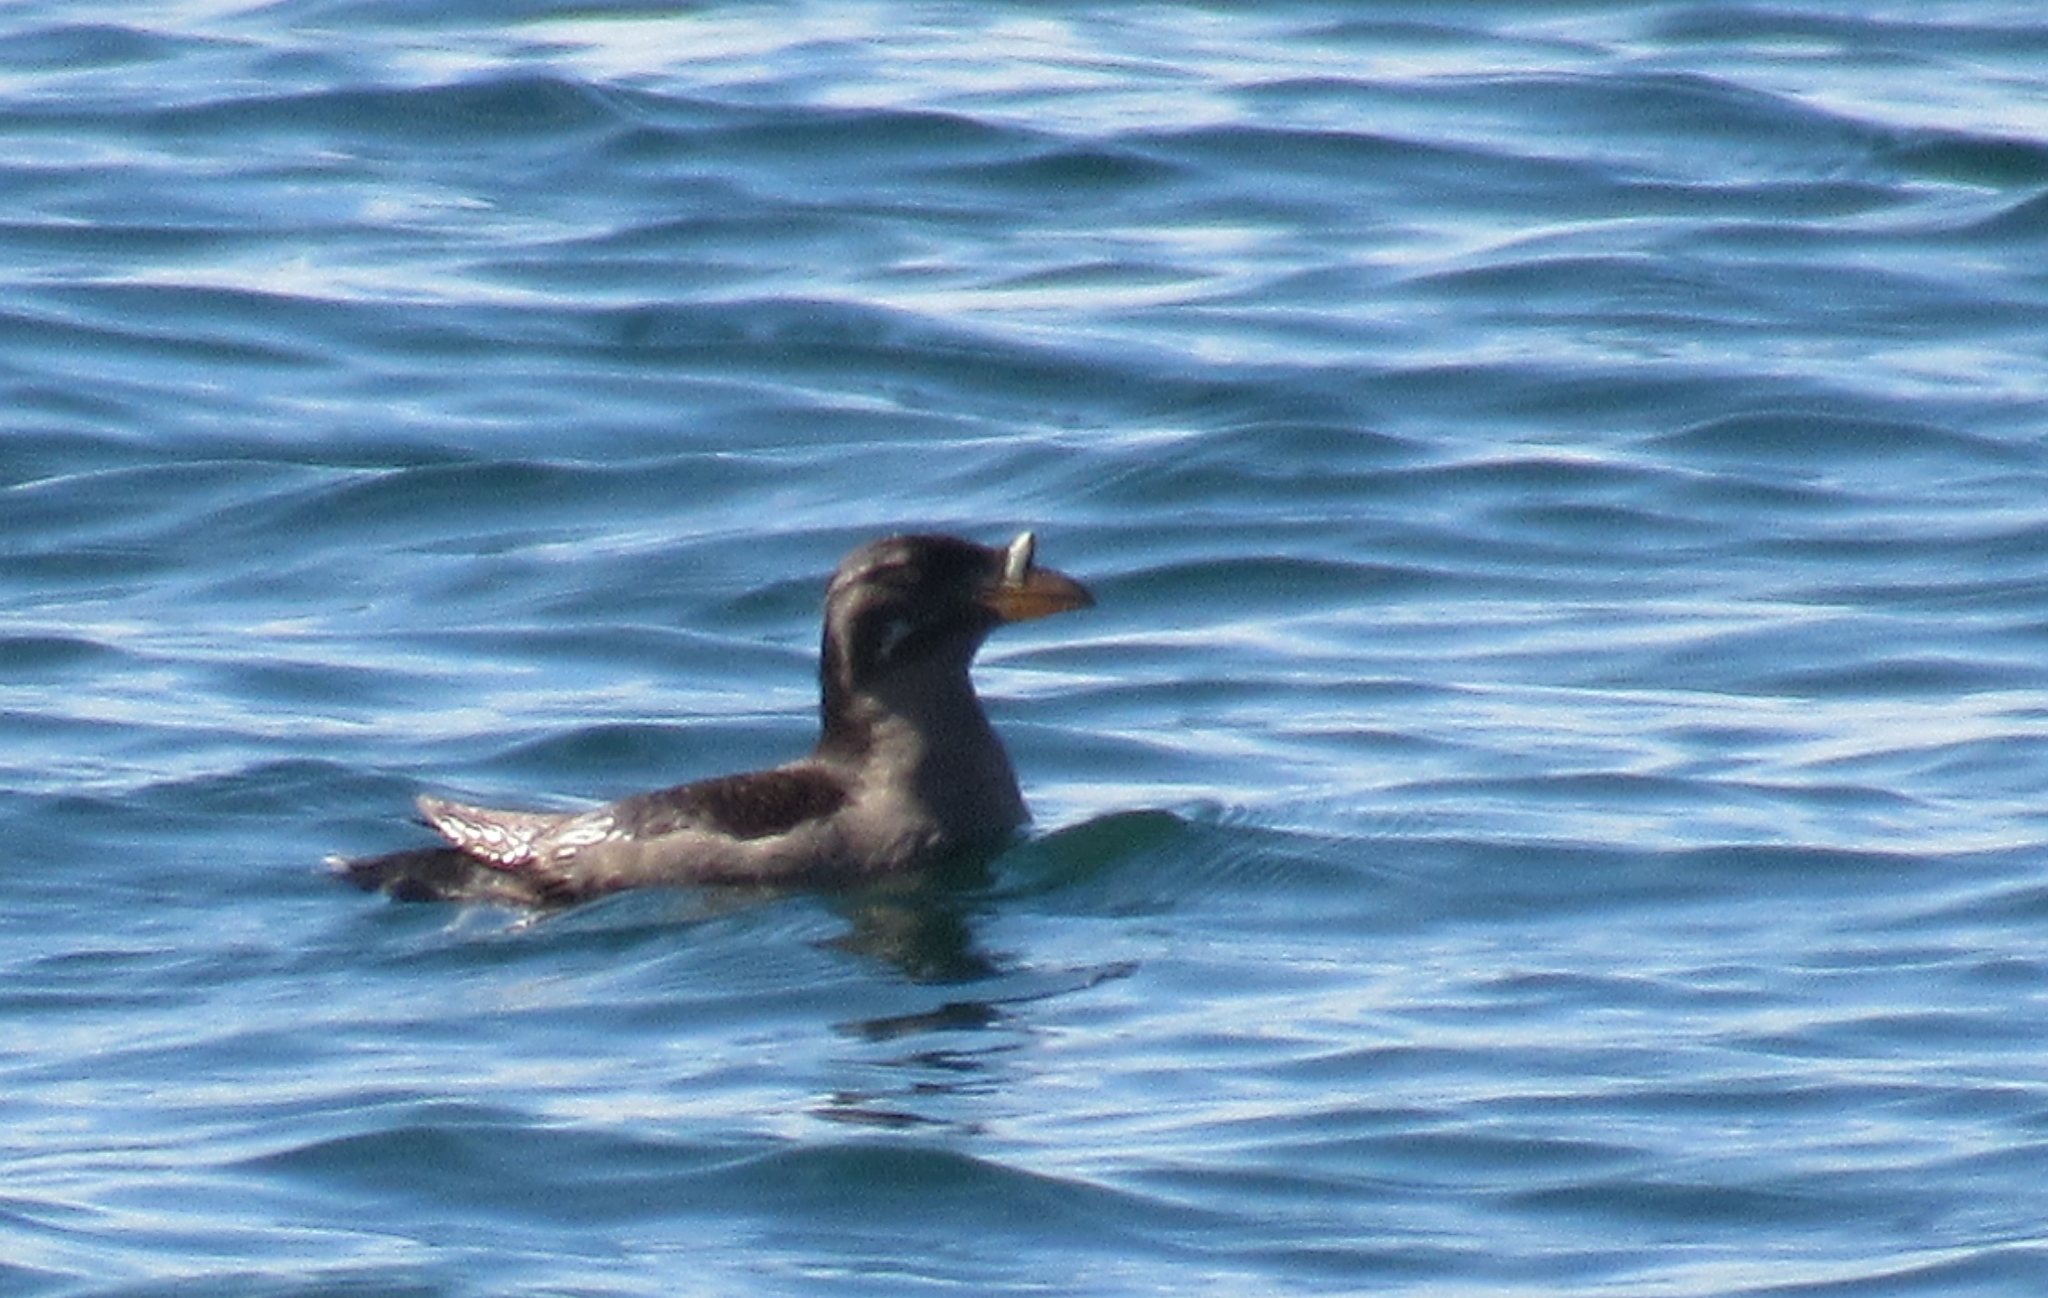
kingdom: Animalia
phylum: Chordata
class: Aves
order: Charadriiformes
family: Alcidae
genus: Cerorhinca
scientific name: Cerorhinca monocerata
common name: Rhinoceros auklet
